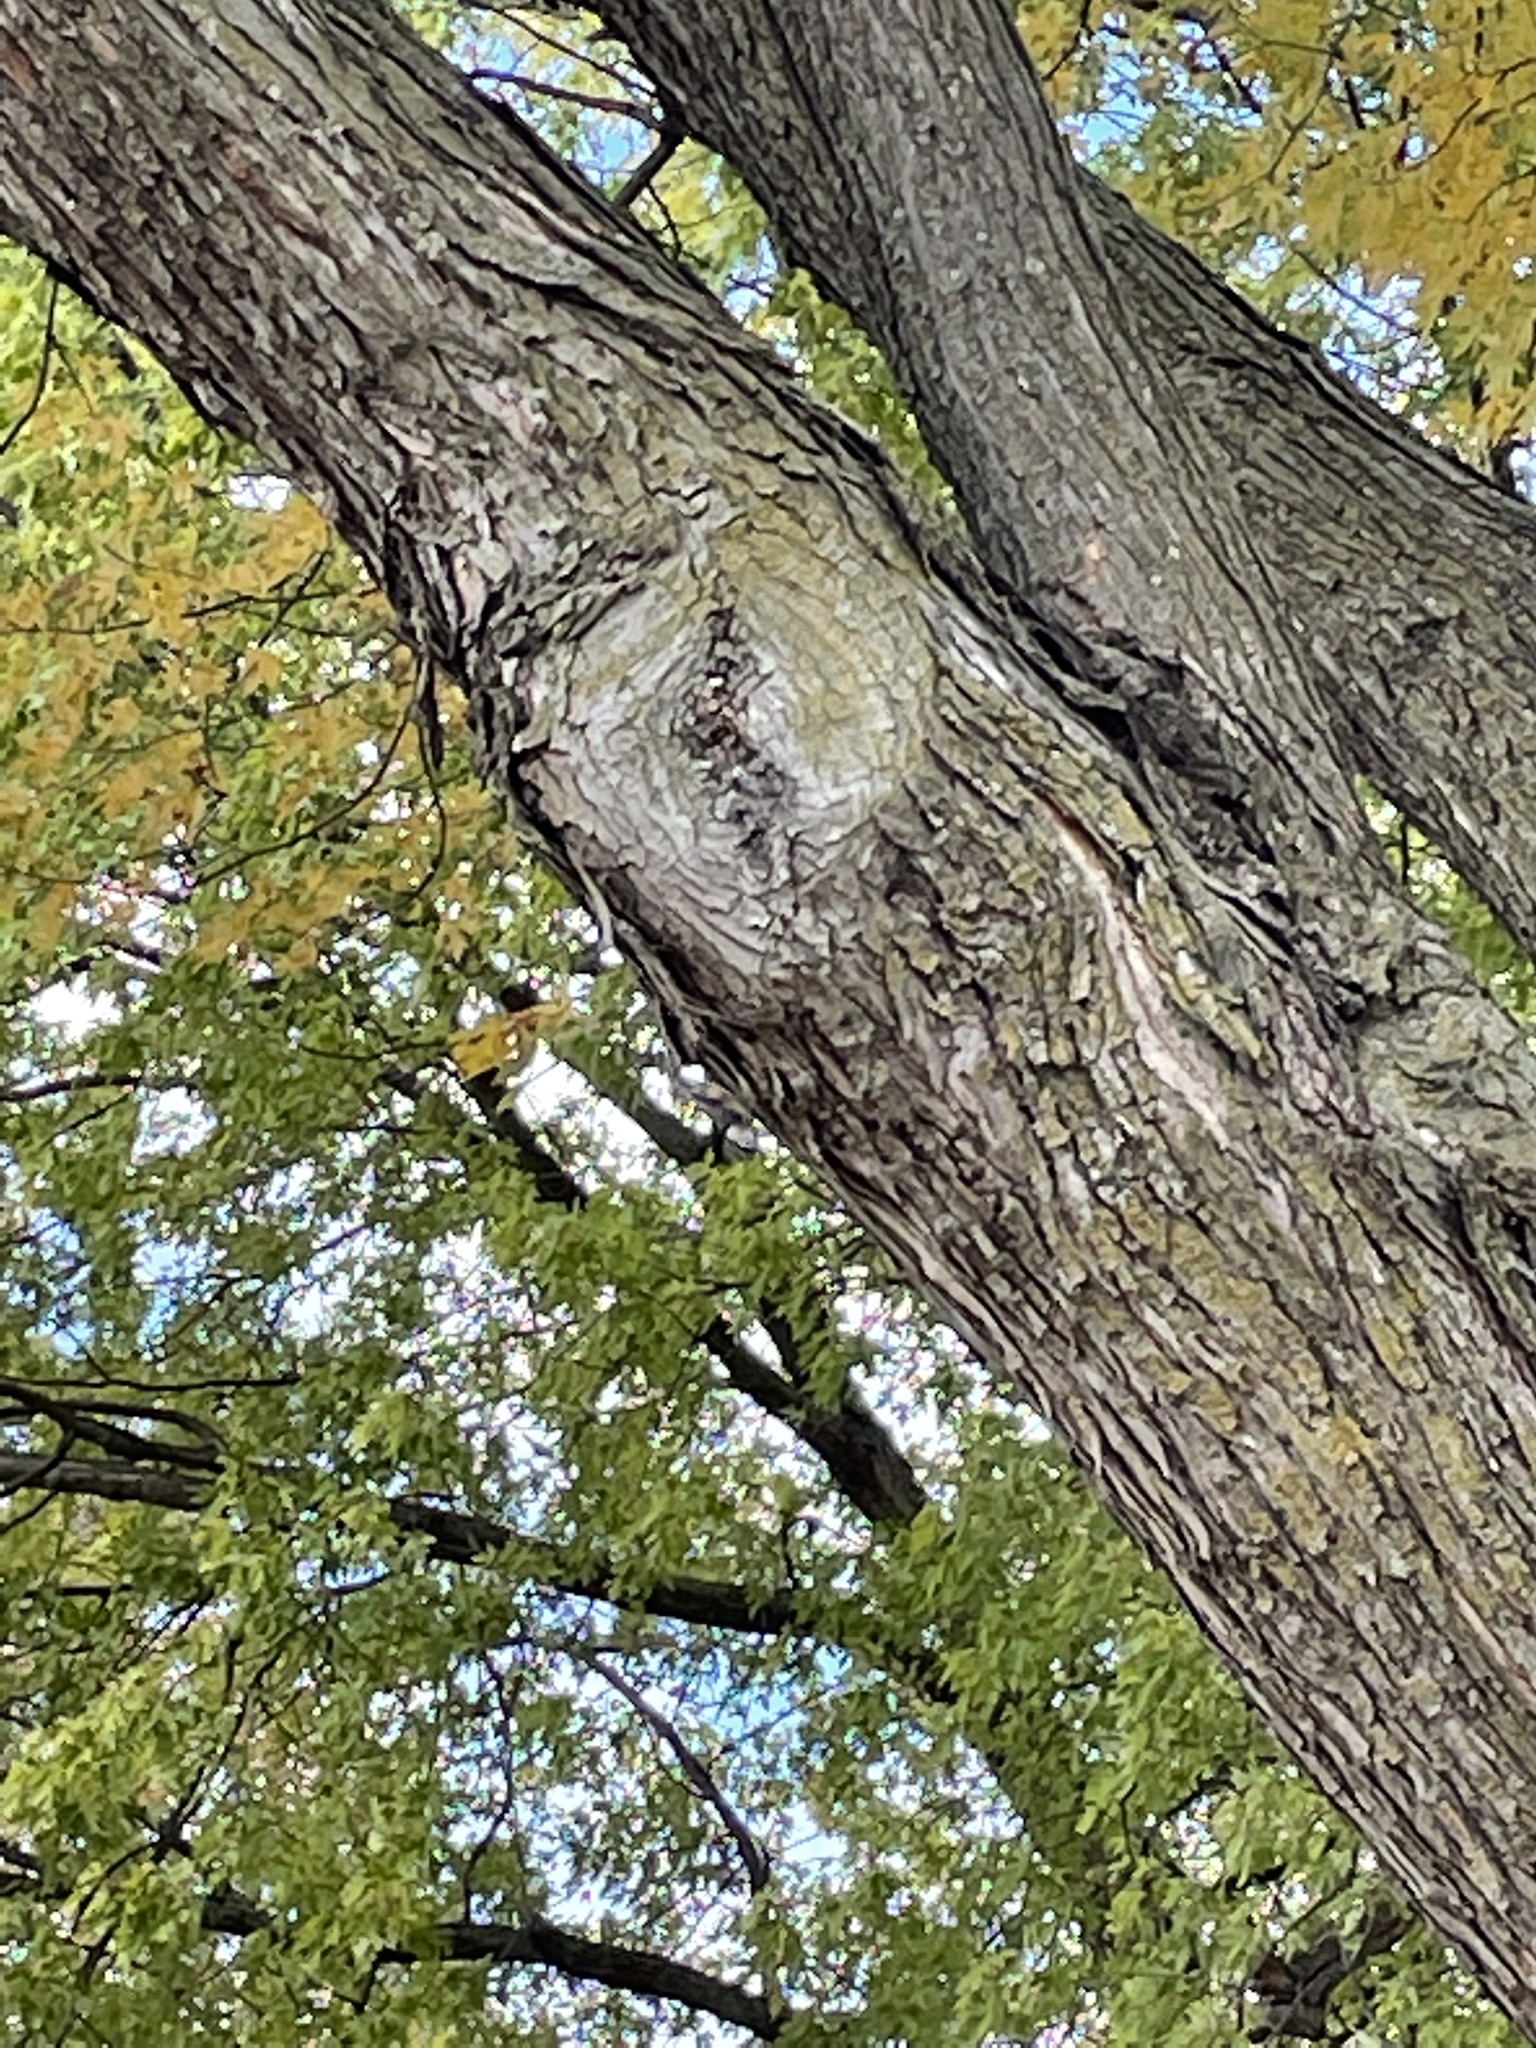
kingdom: Animalia
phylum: Chordata
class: Aves
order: Passeriformes
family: Sittidae
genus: Sitta
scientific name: Sitta carolinensis
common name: White-breasted nuthatch
